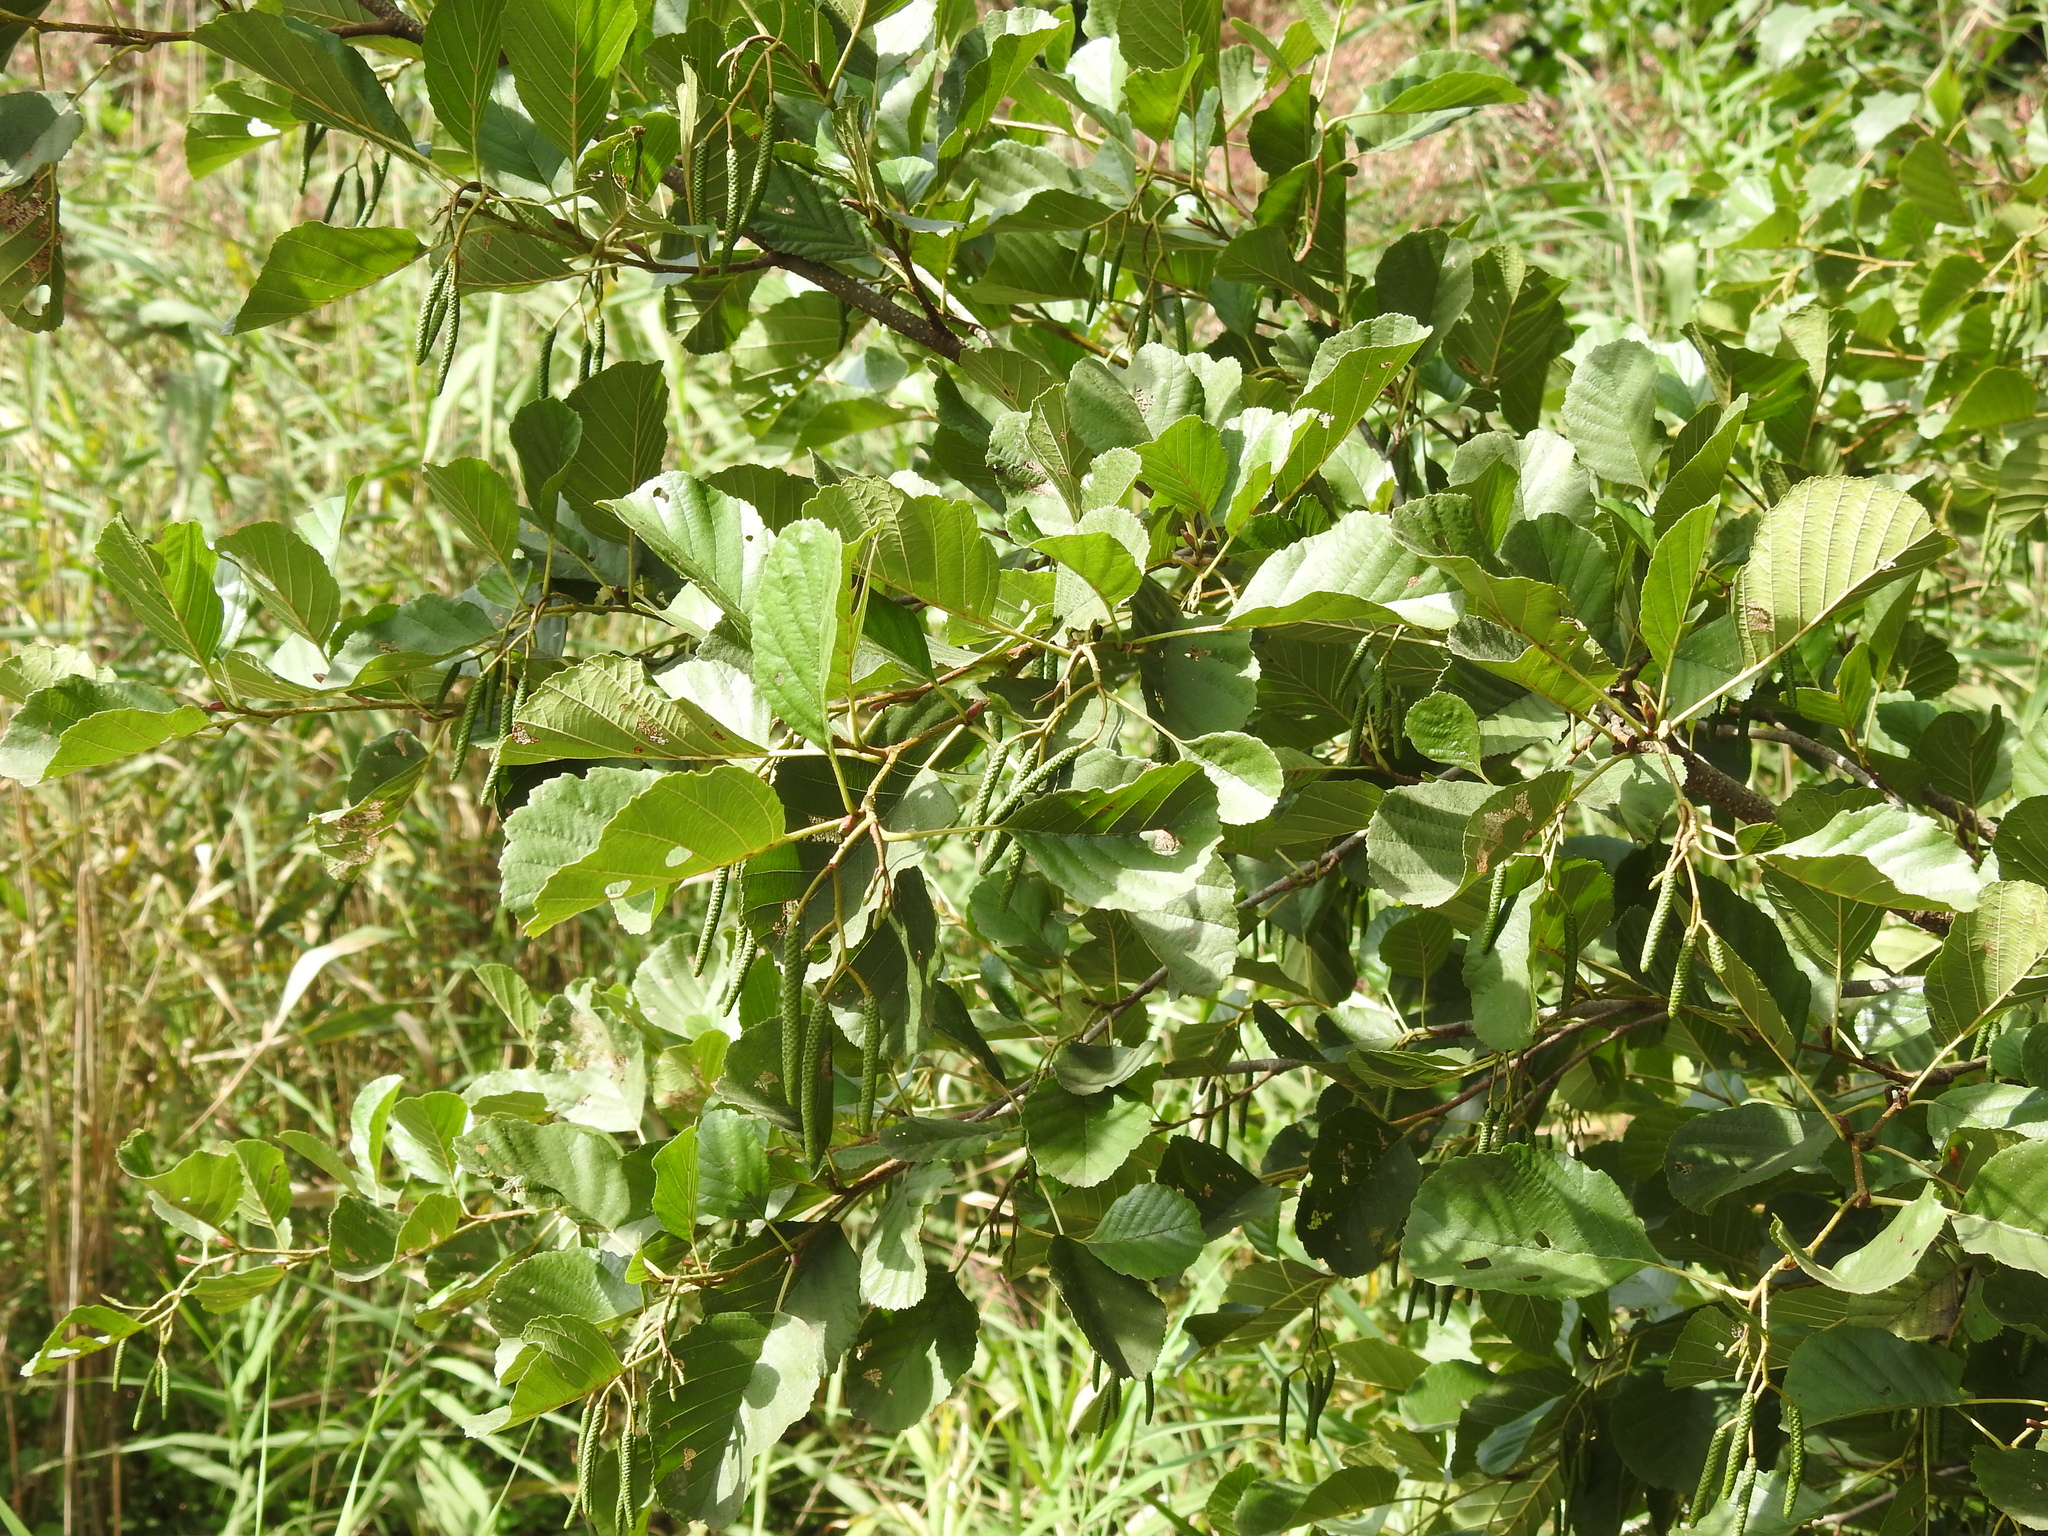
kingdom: Plantae
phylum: Tracheophyta
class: Magnoliopsida
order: Fagales
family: Betulaceae
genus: Alnus
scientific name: Alnus glutinosa
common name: Black alder
